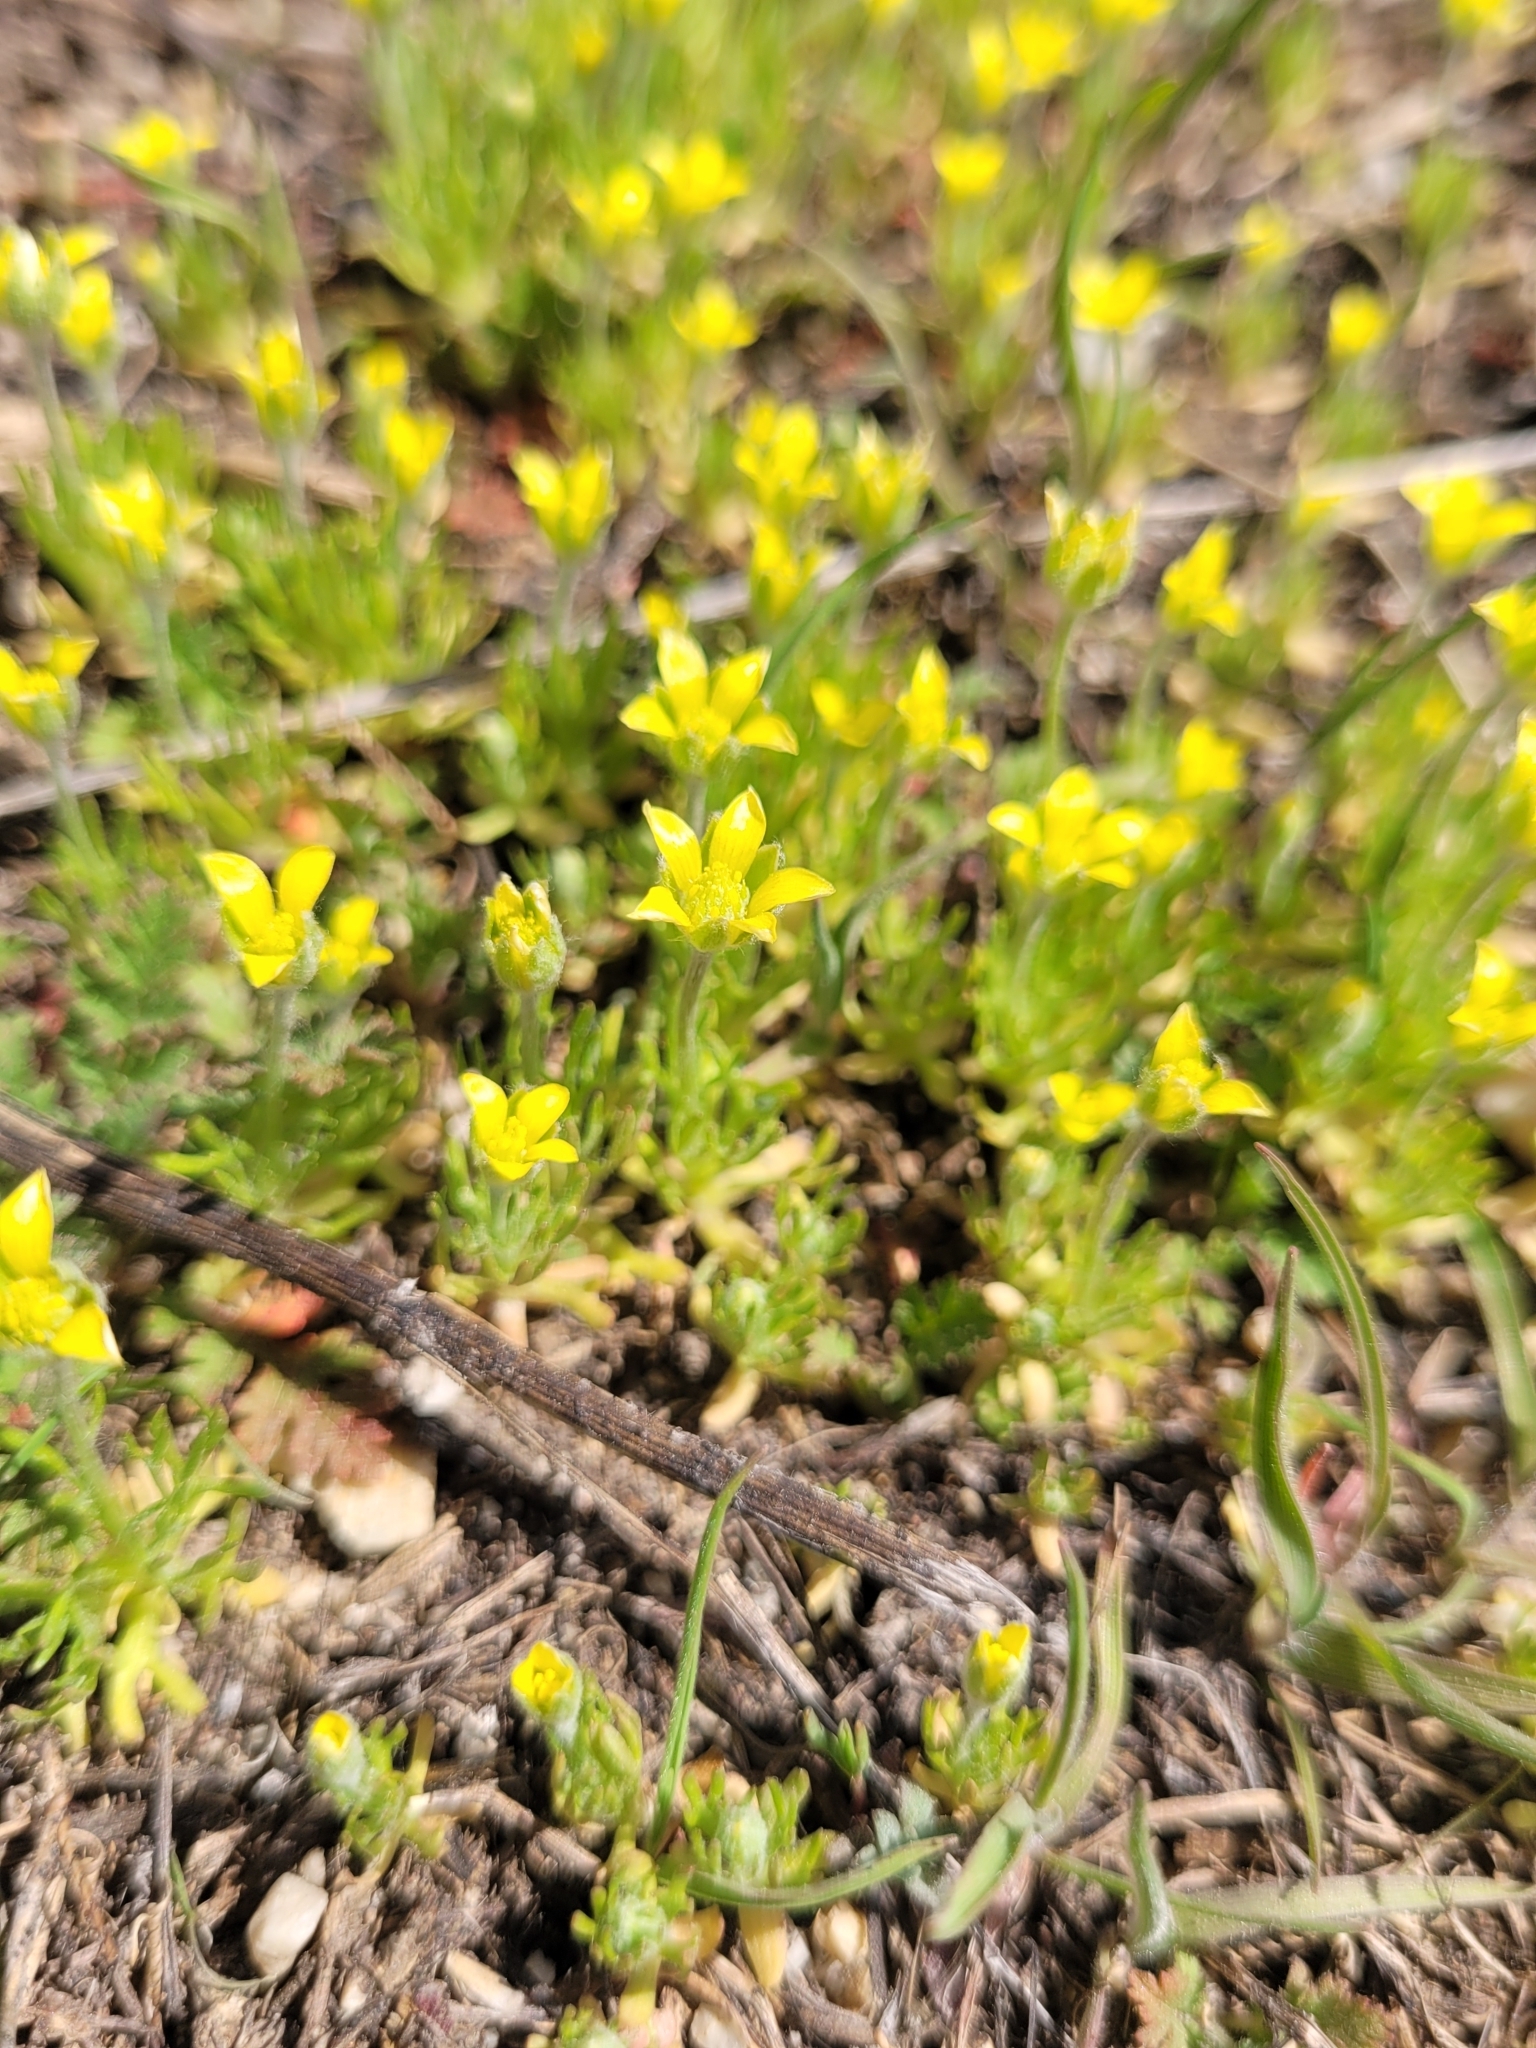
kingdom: Plantae
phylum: Tracheophyta
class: Magnoliopsida
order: Ranunculales
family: Ranunculaceae
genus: Ceratocephala
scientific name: Ceratocephala orthoceras
